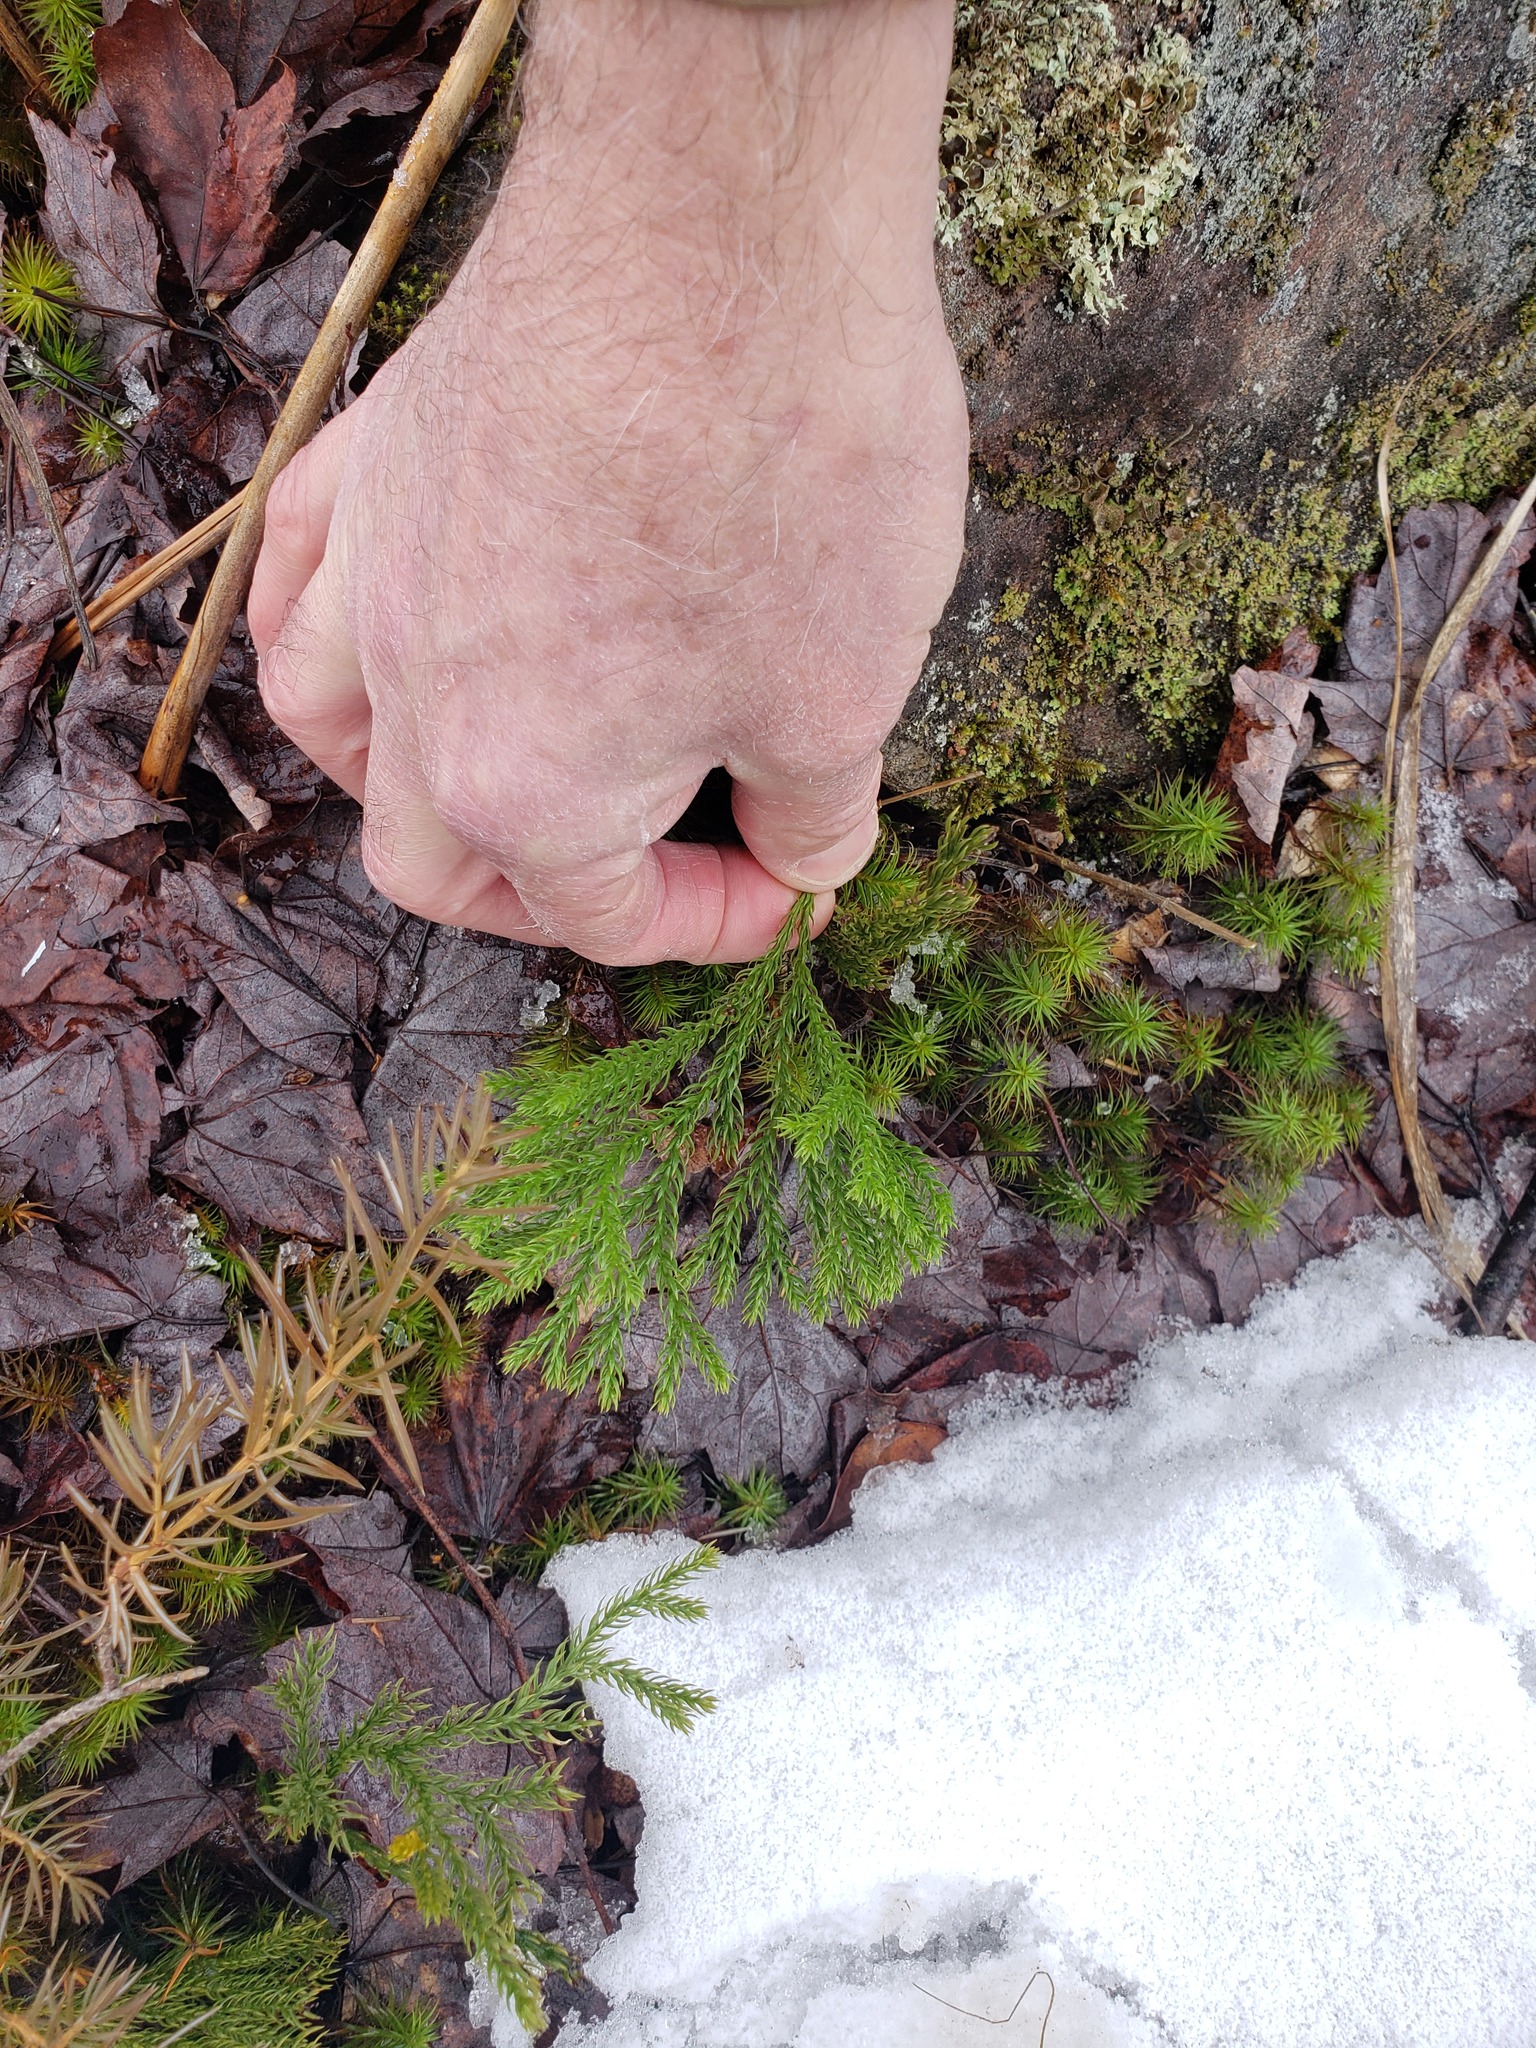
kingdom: Plantae
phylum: Tracheophyta
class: Lycopodiopsida
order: Lycopodiales
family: Lycopodiaceae
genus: Dendrolycopodium
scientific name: Dendrolycopodium hickeyi
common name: Hickey's clubmoss
